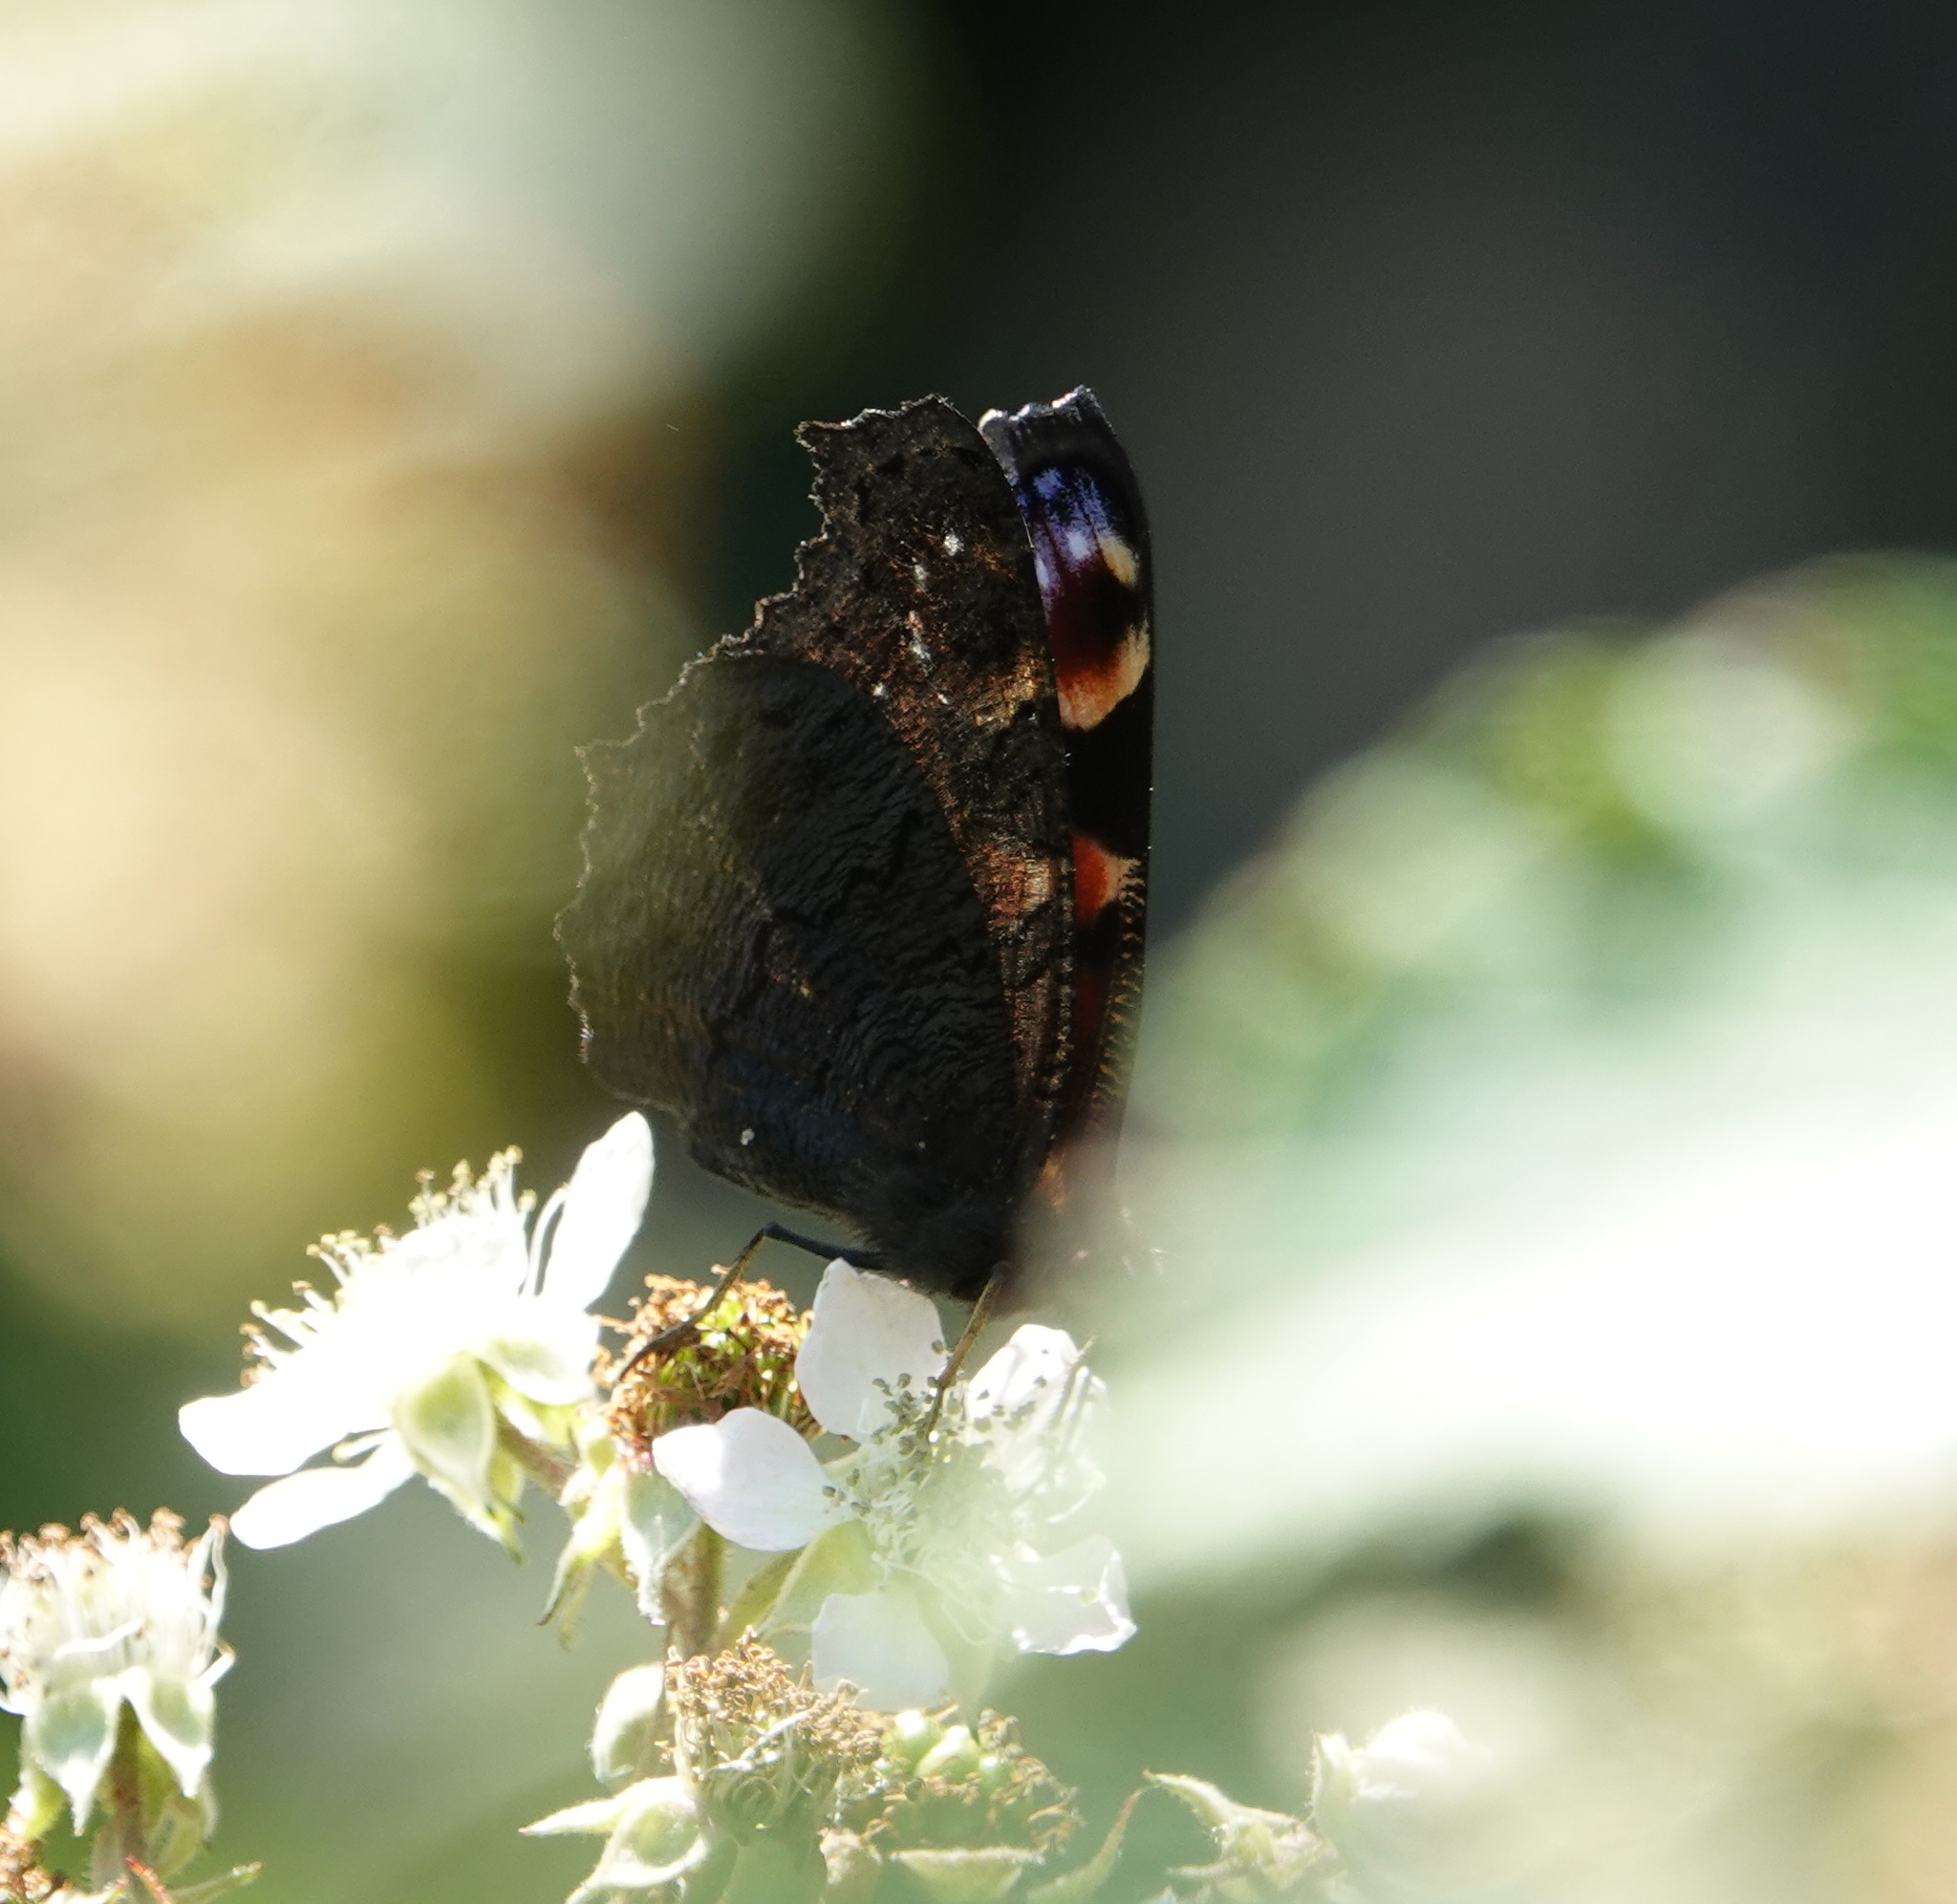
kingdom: Animalia
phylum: Arthropoda
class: Insecta
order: Lepidoptera
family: Nymphalidae
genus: Aglais
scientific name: Aglais io
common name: Peacock
